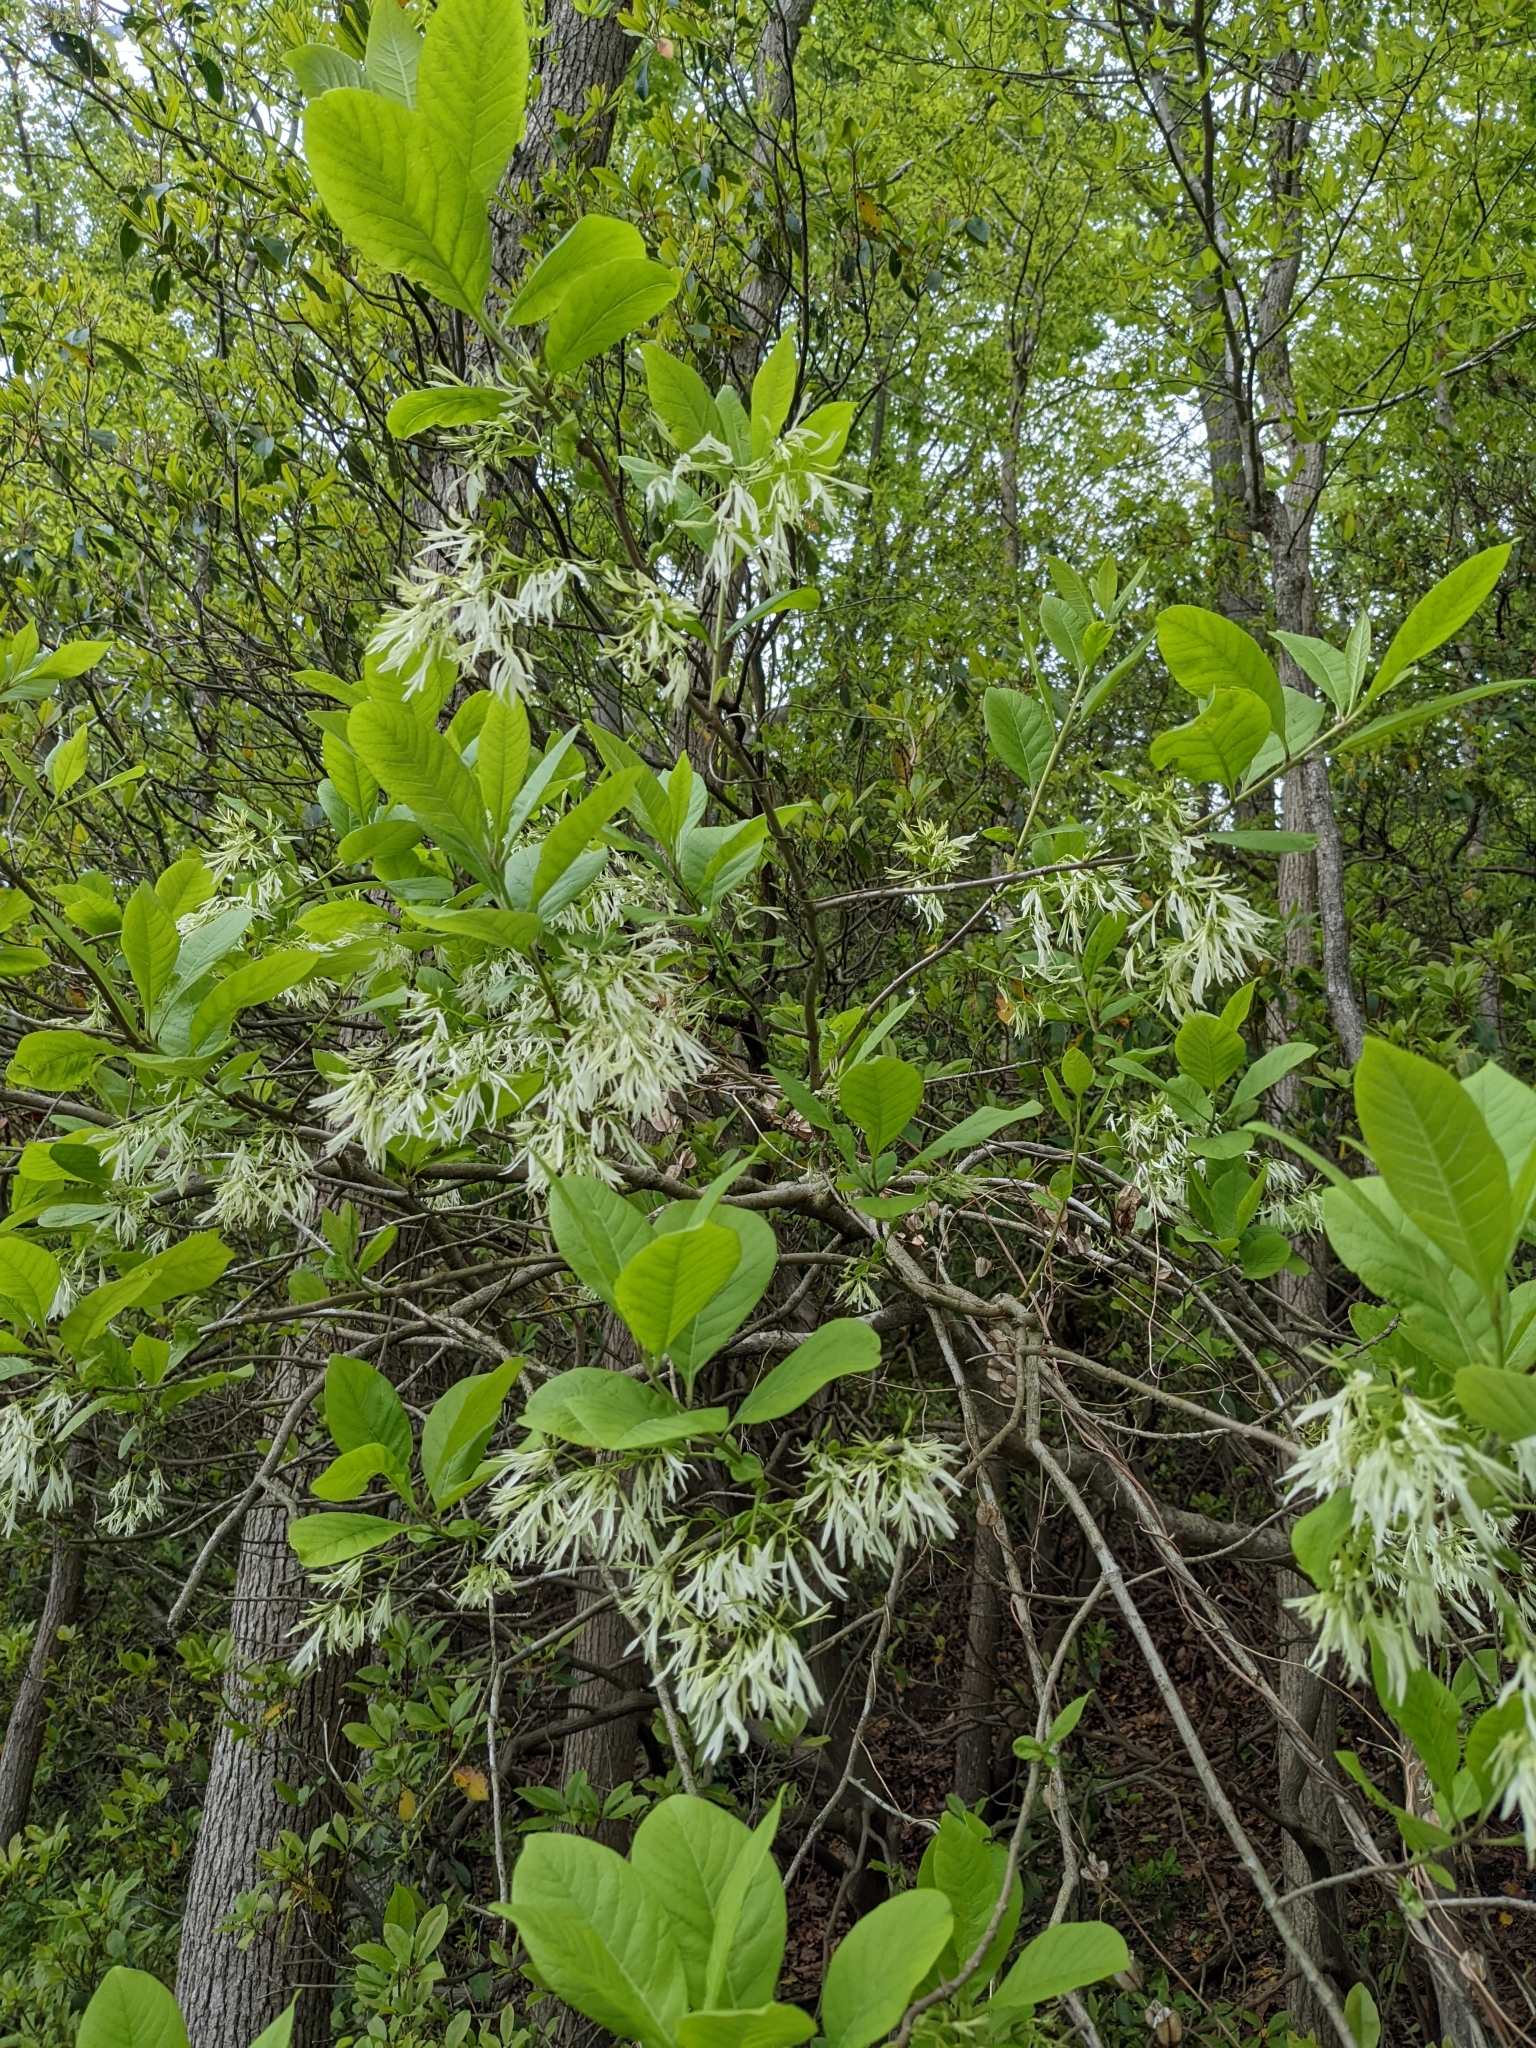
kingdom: Plantae
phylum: Tracheophyta
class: Magnoliopsida
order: Lamiales
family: Oleaceae
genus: Chionanthus
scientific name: Chionanthus virginicus
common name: American fringetree
